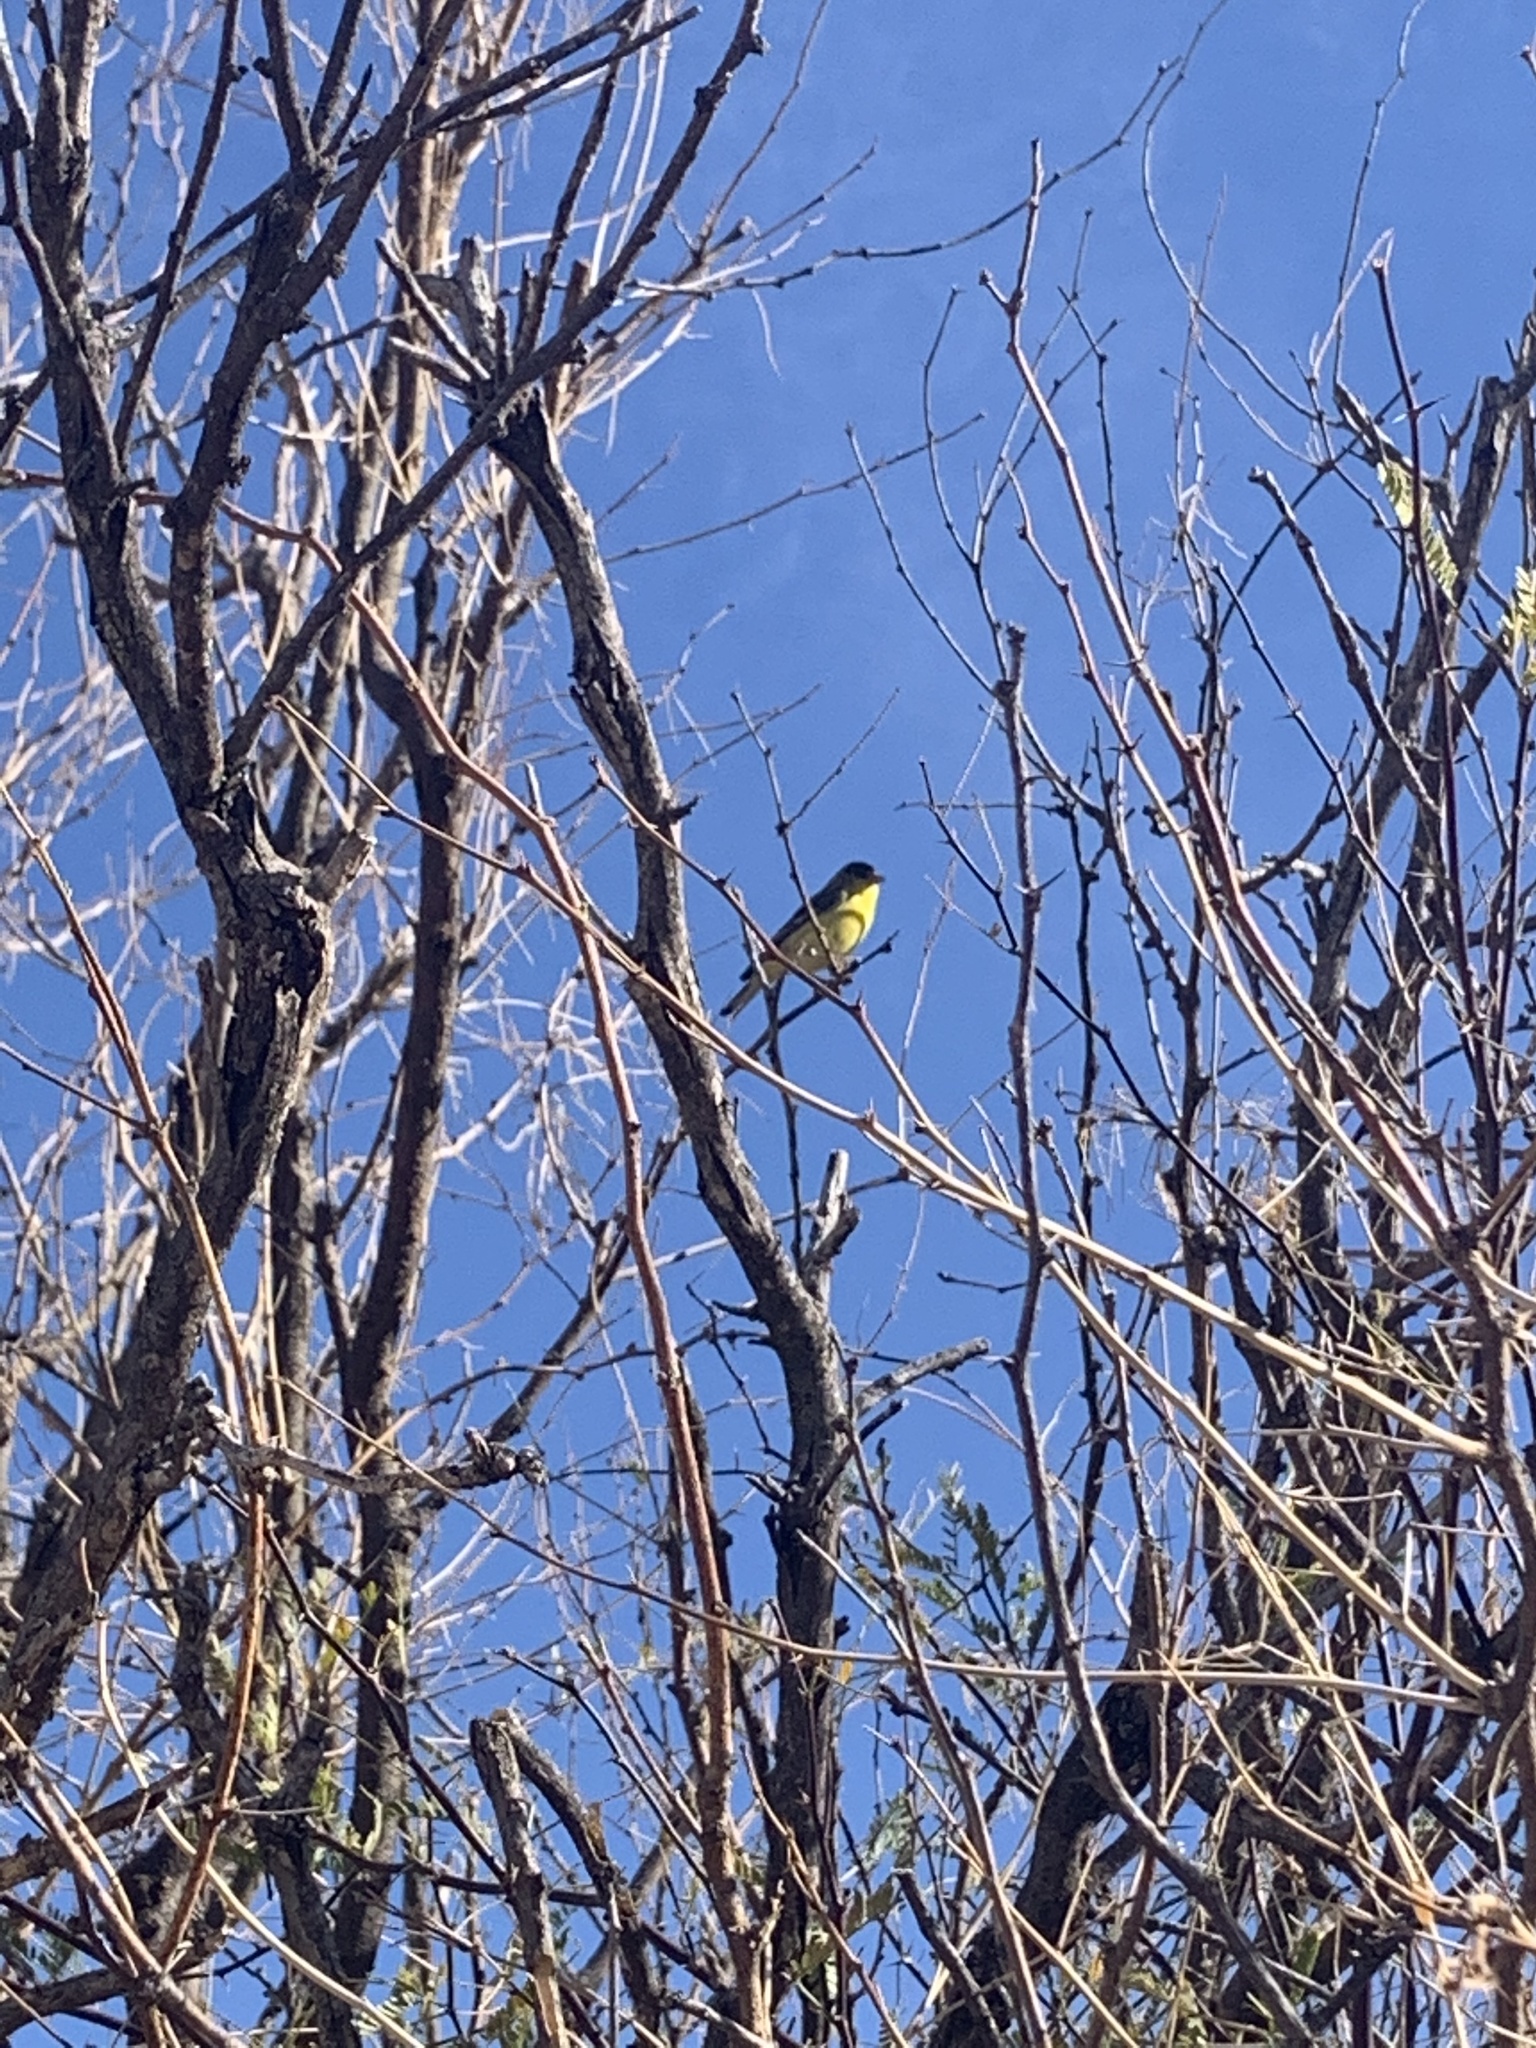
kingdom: Animalia
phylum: Chordata
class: Aves
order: Passeriformes
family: Fringillidae
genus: Spinus
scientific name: Spinus psaltria
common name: Lesser goldfinch
